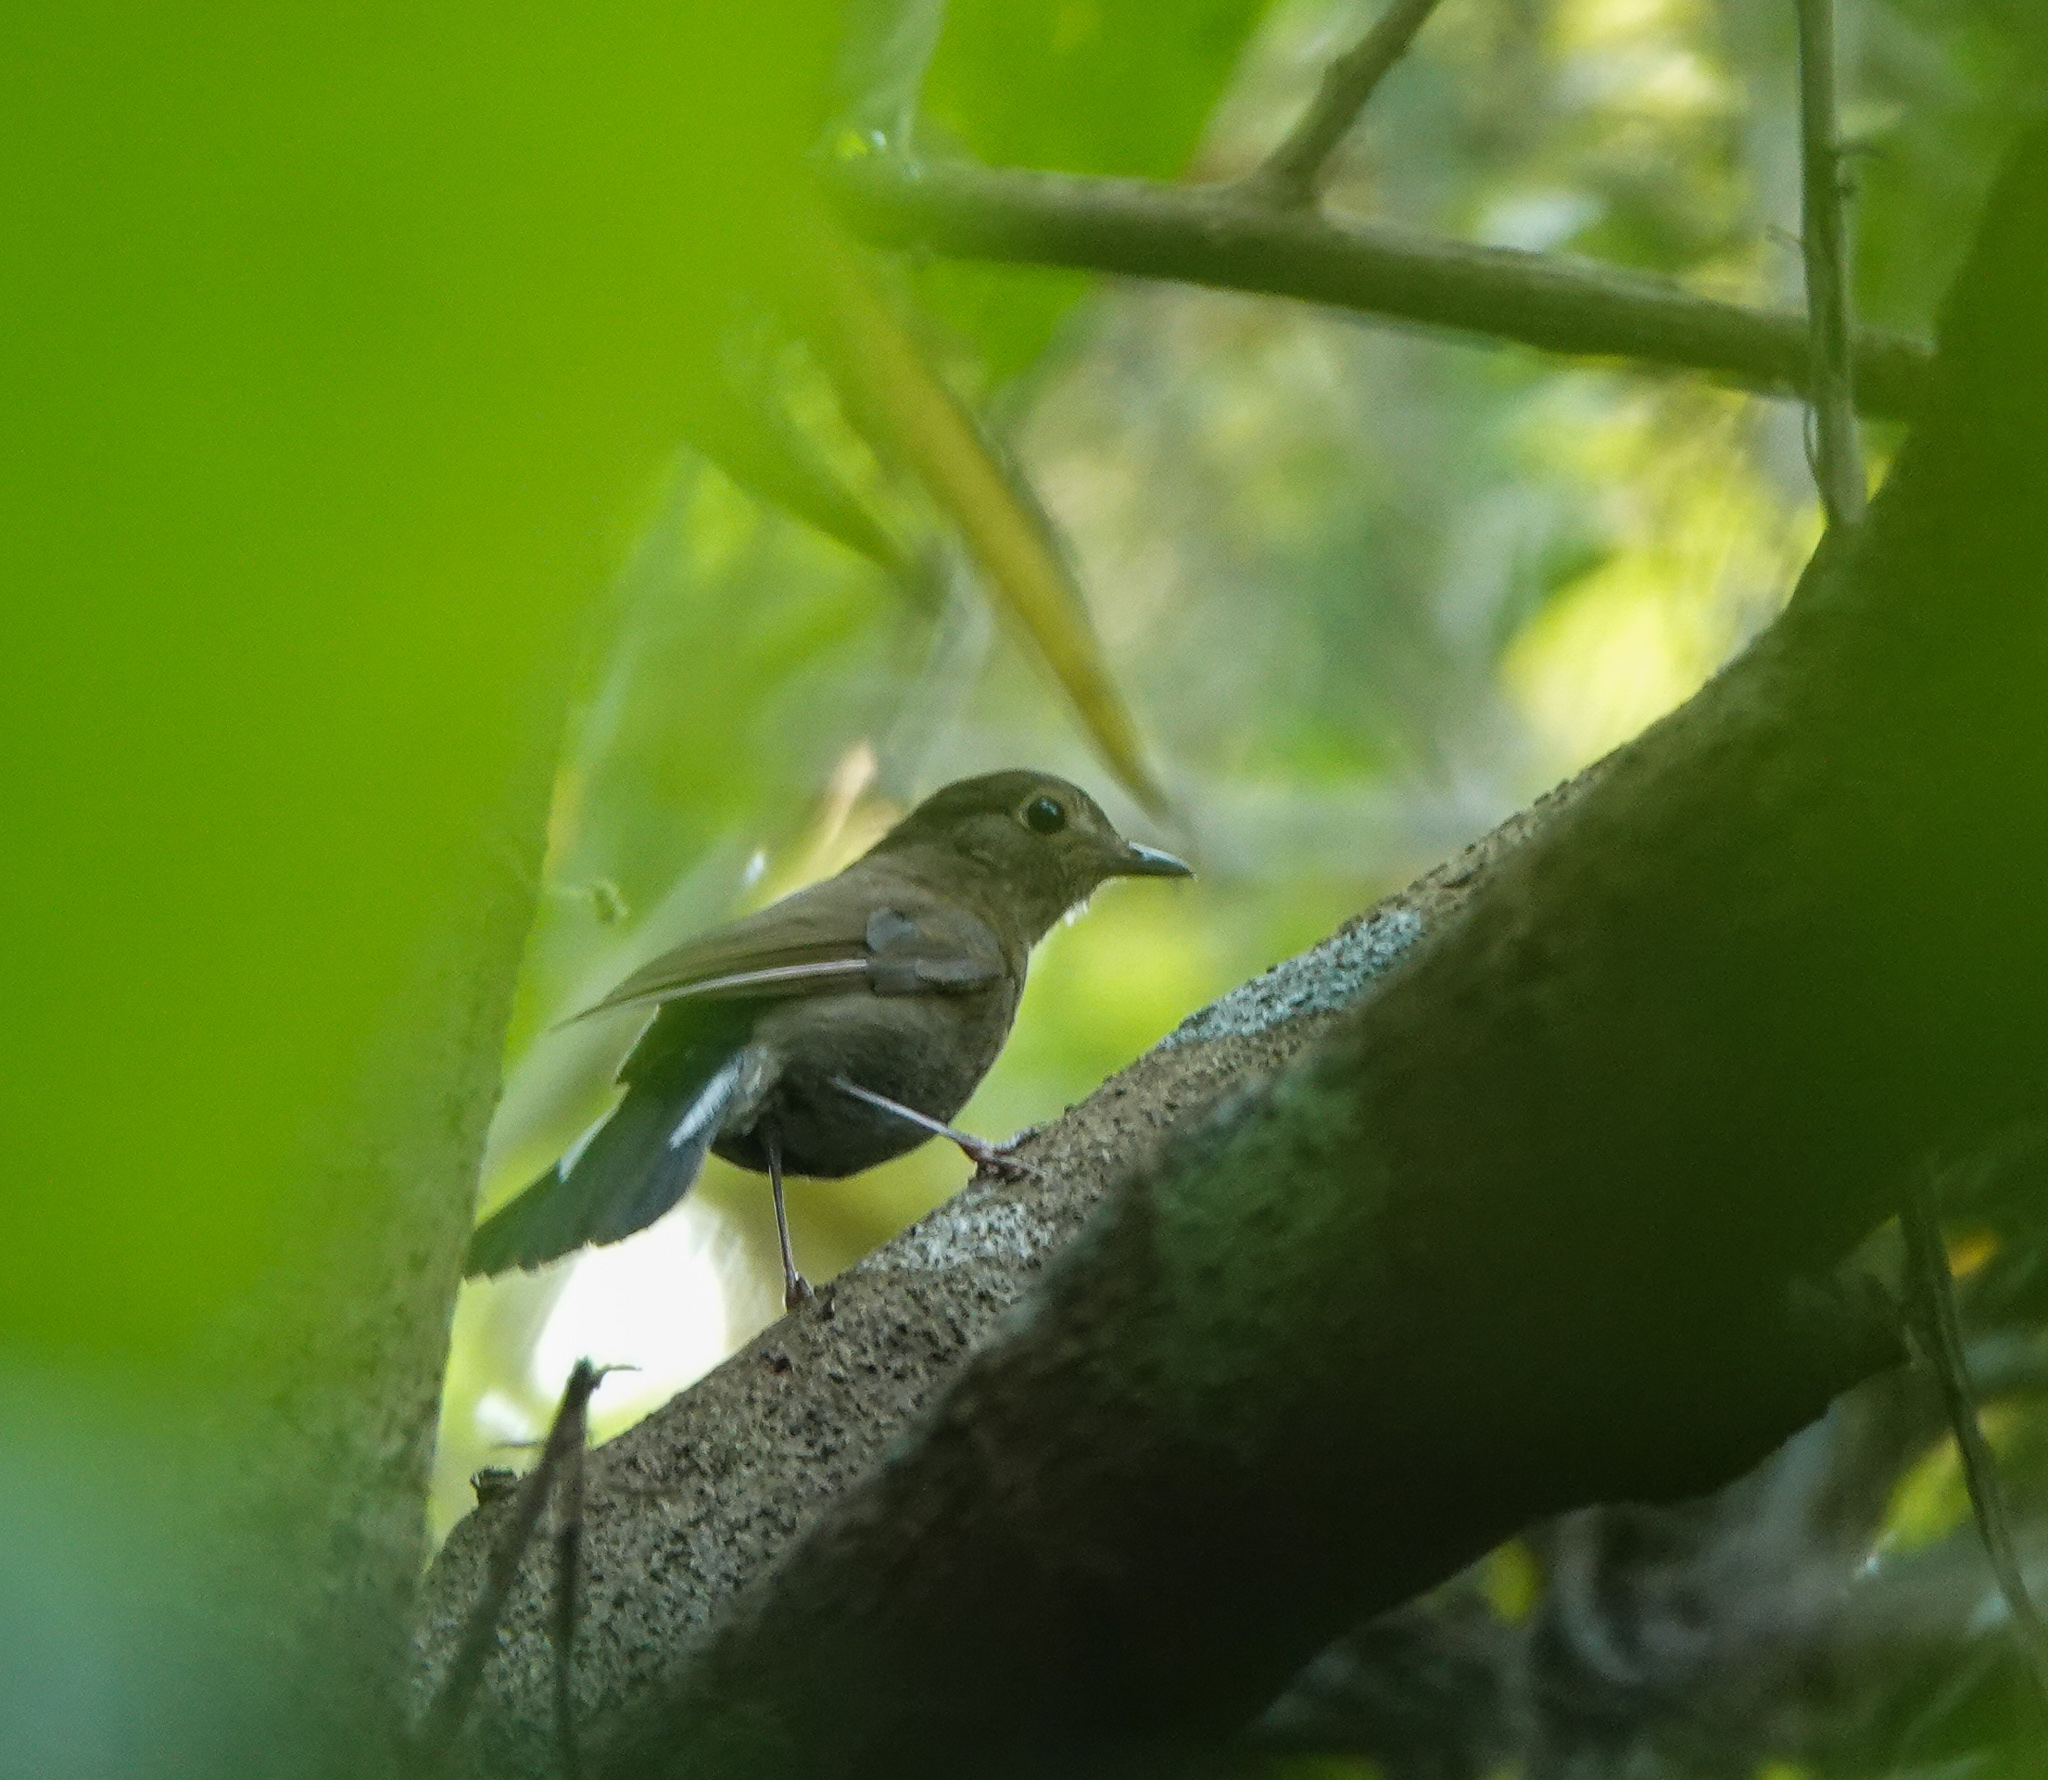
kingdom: Animalia
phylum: Chordata
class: Aves
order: Passeriformes
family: Muscicapidae
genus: Myiomela
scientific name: Myiomela leucura
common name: White-tailed robin
